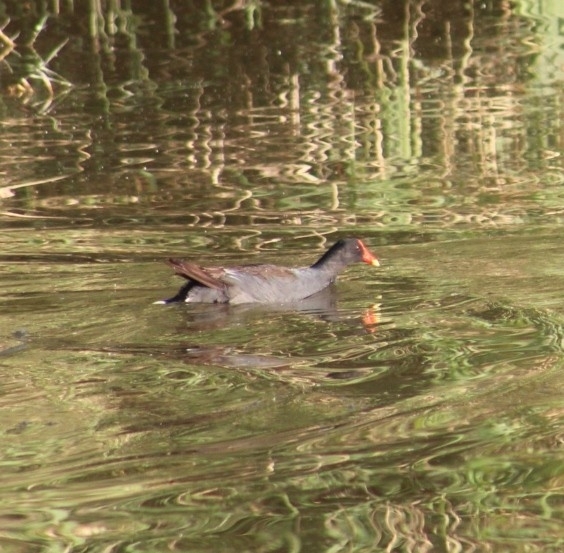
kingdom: Animalia
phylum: Chordata
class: Aves
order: Gruiformes
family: Rallidae
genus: Gallinula
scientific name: Gallinula chloropus
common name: Common moorhen
